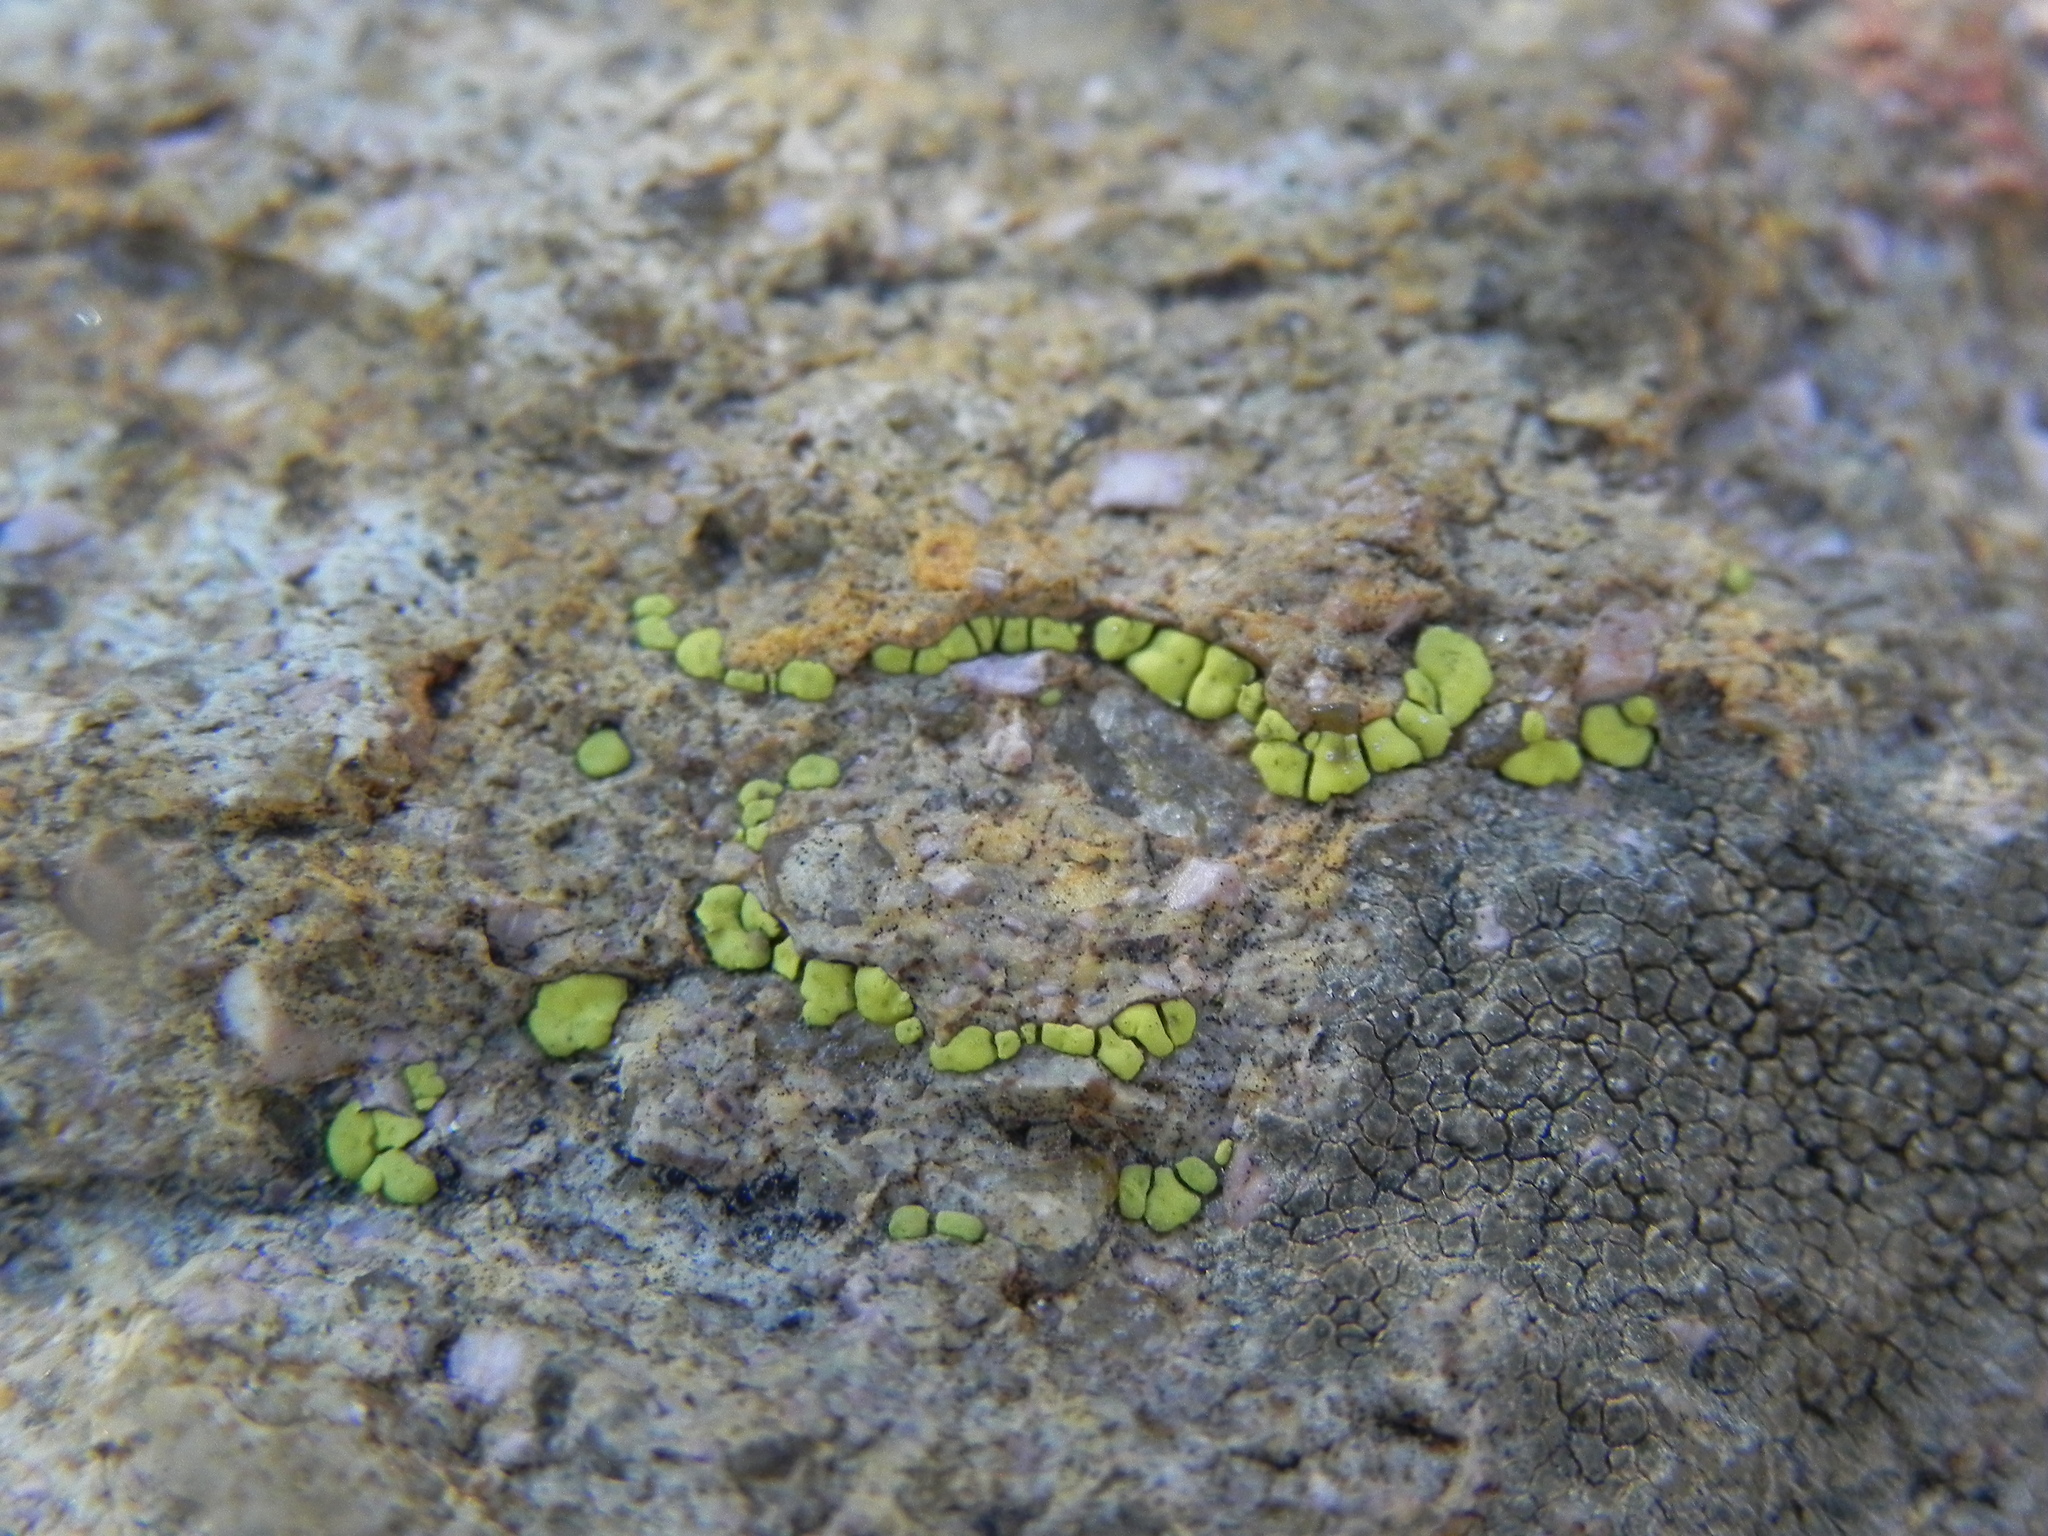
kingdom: Fungi
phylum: Ascomycota
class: Lecanoromycetes
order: Acarosporales
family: Acarosporaceae
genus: Acarospora
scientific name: Acarospora socialis
